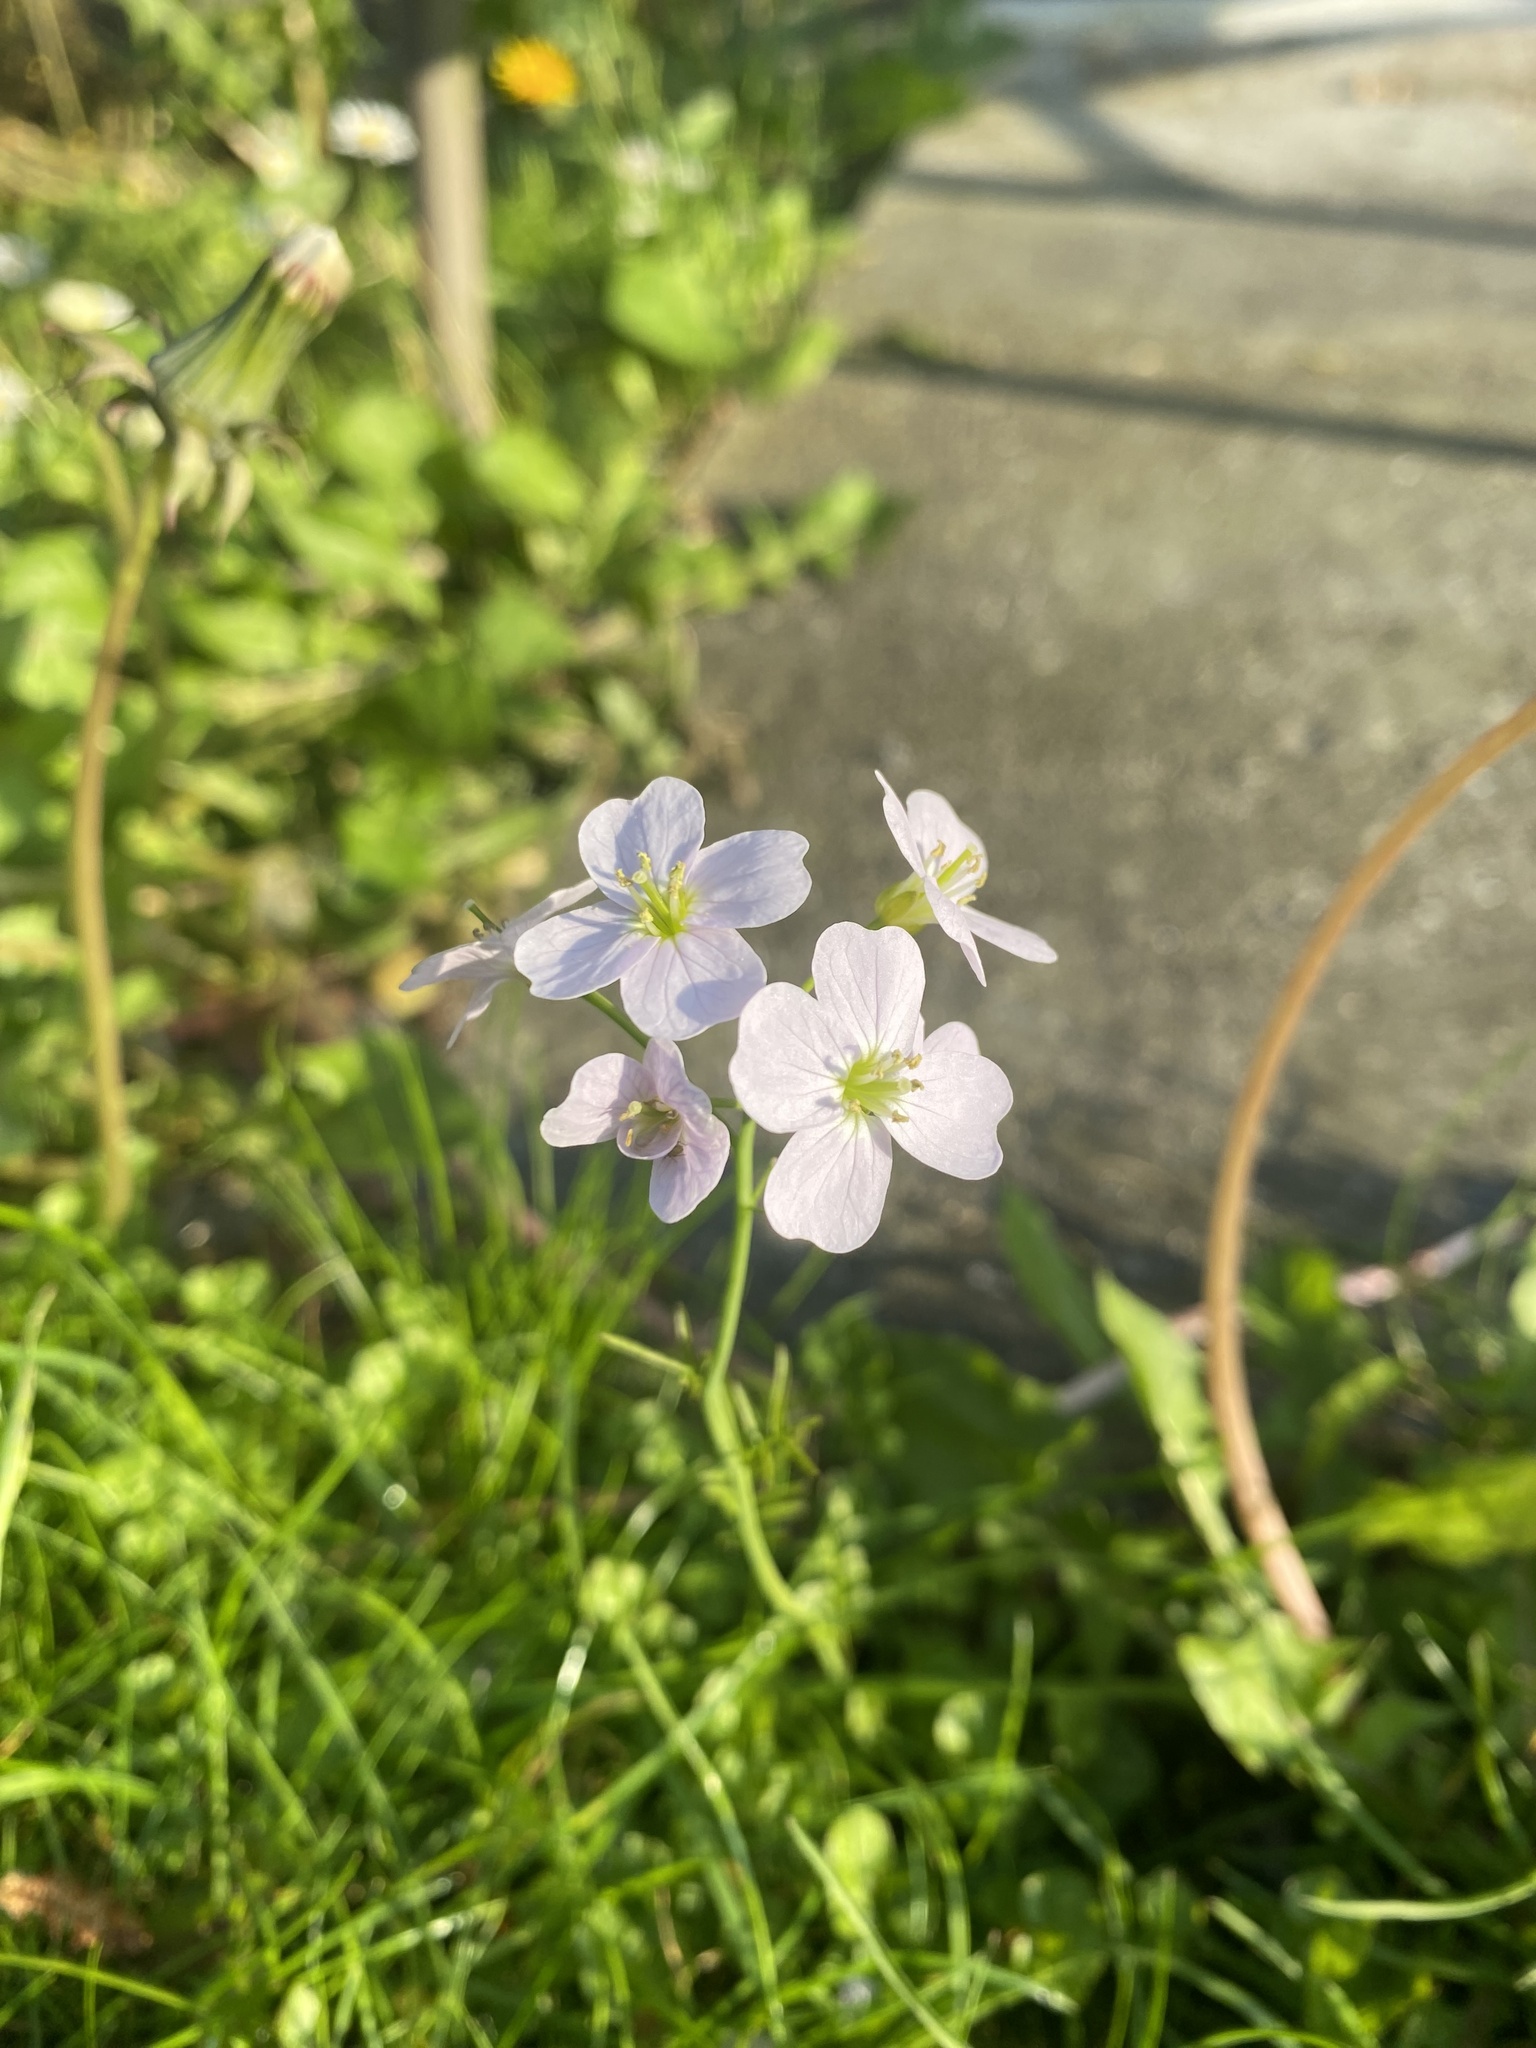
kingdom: Plantae
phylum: Tracheophyta
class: Magnoliopsida
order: Brassicales
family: Brassicaceae
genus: Cardamine
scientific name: Cardamine pratensis
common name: Cuckoo flower
